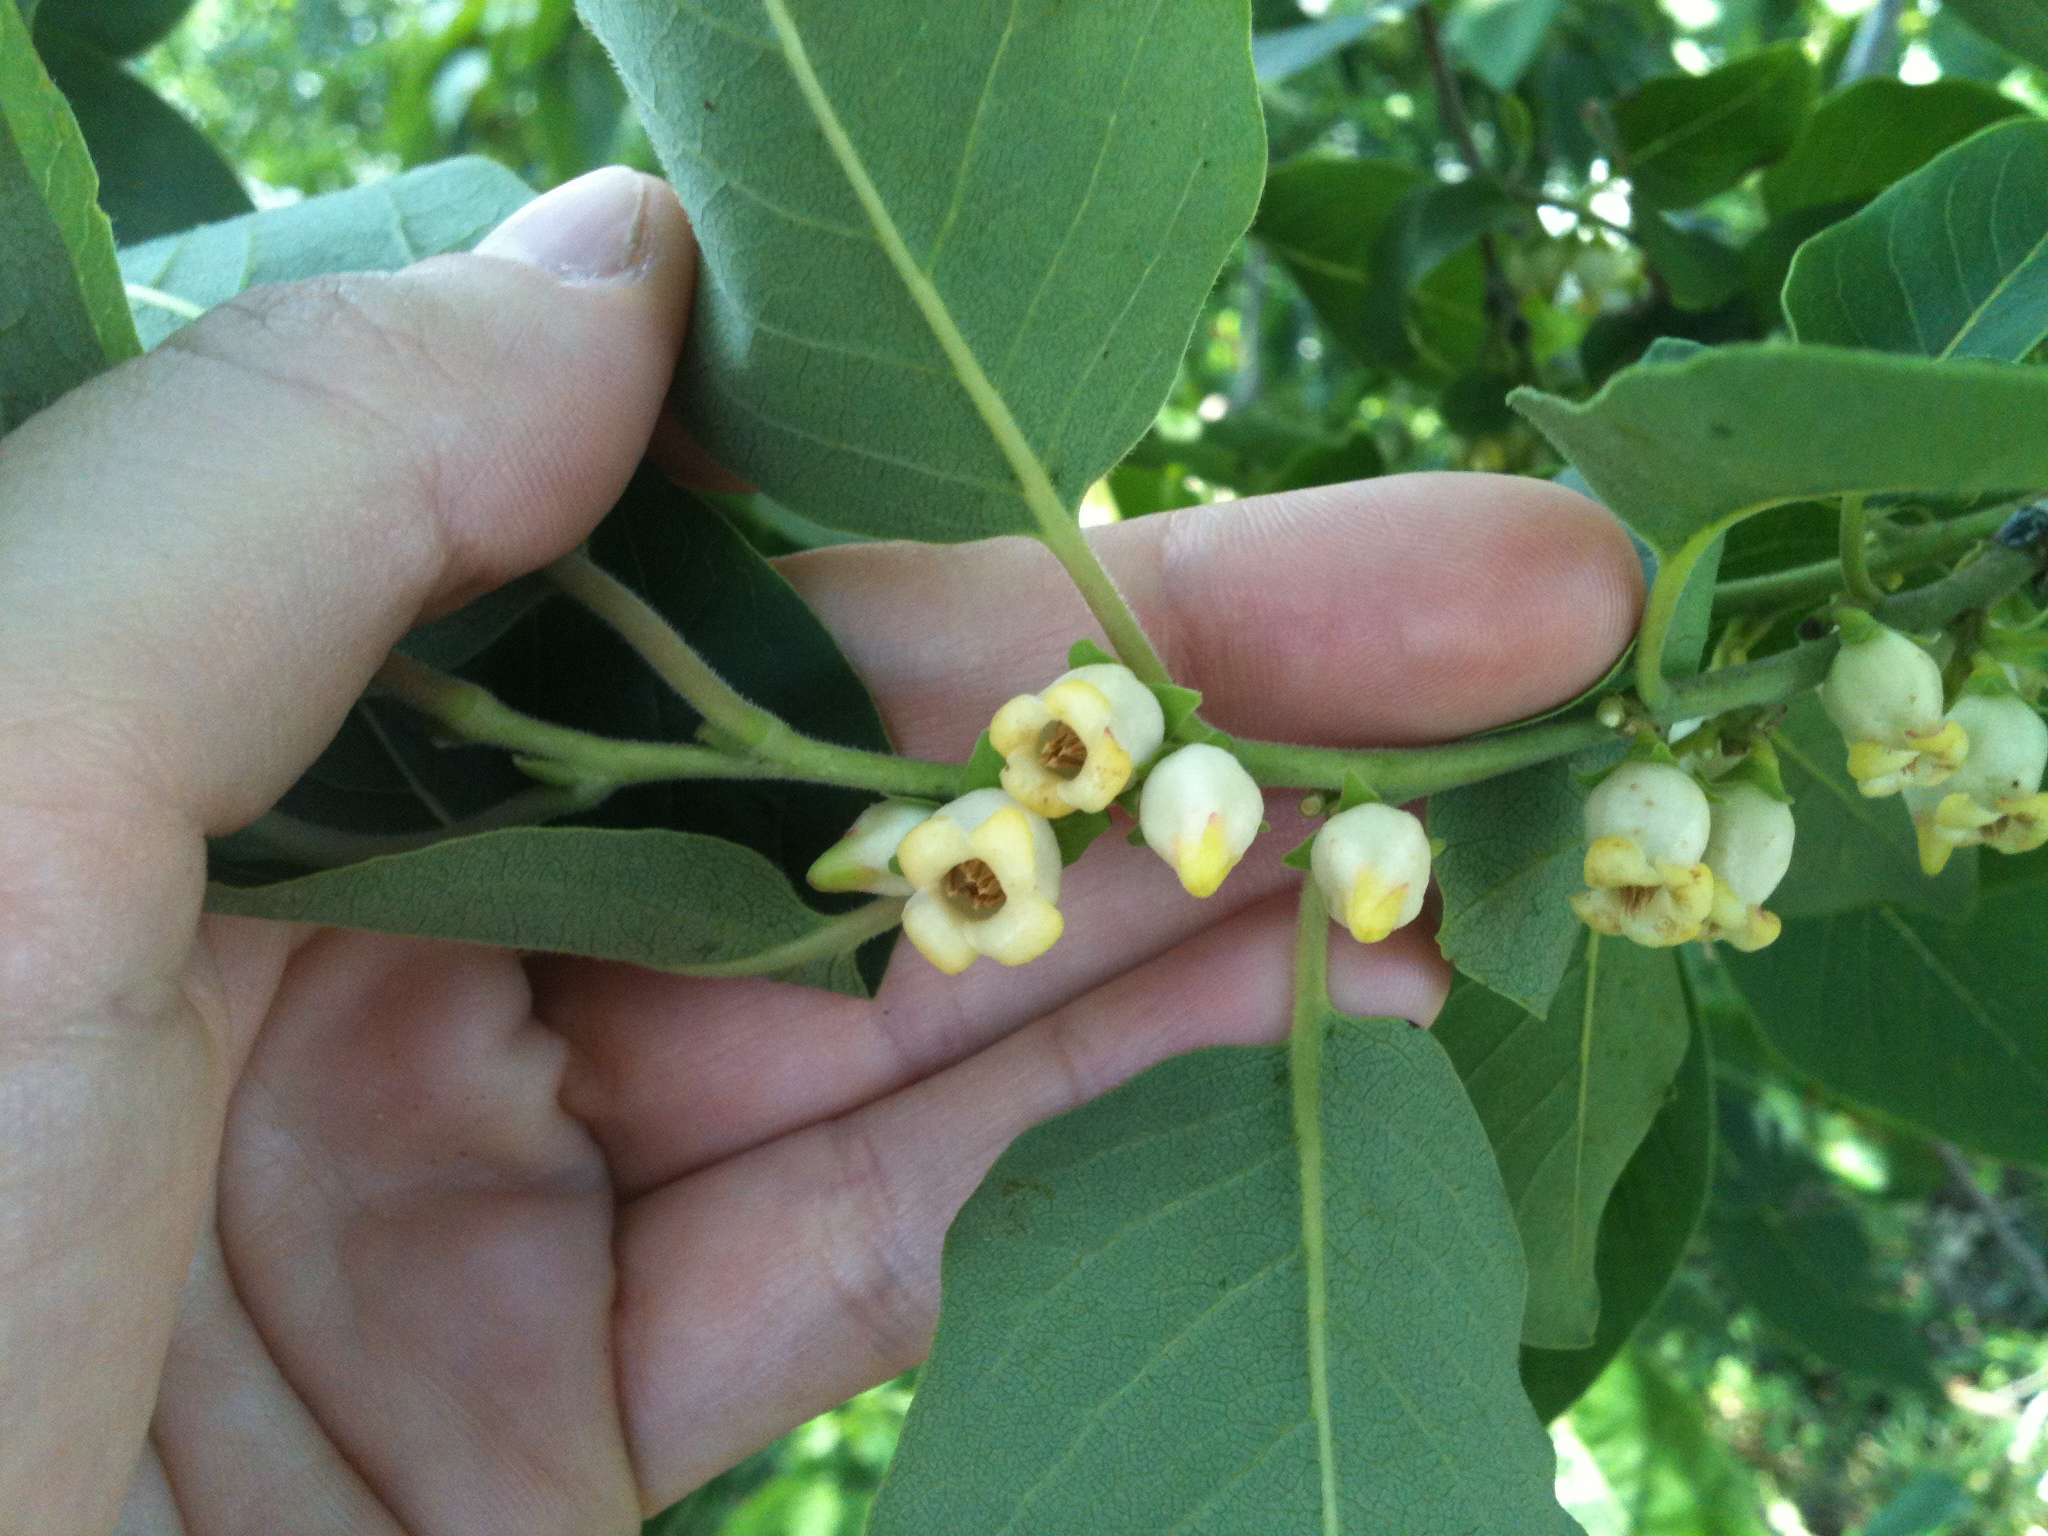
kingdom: Plantae
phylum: Tracheophyta
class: Magnoliopsida
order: Ericales
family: Ebenaceae
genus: Diospyros
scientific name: Diospyros virginiana
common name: Persimmon
